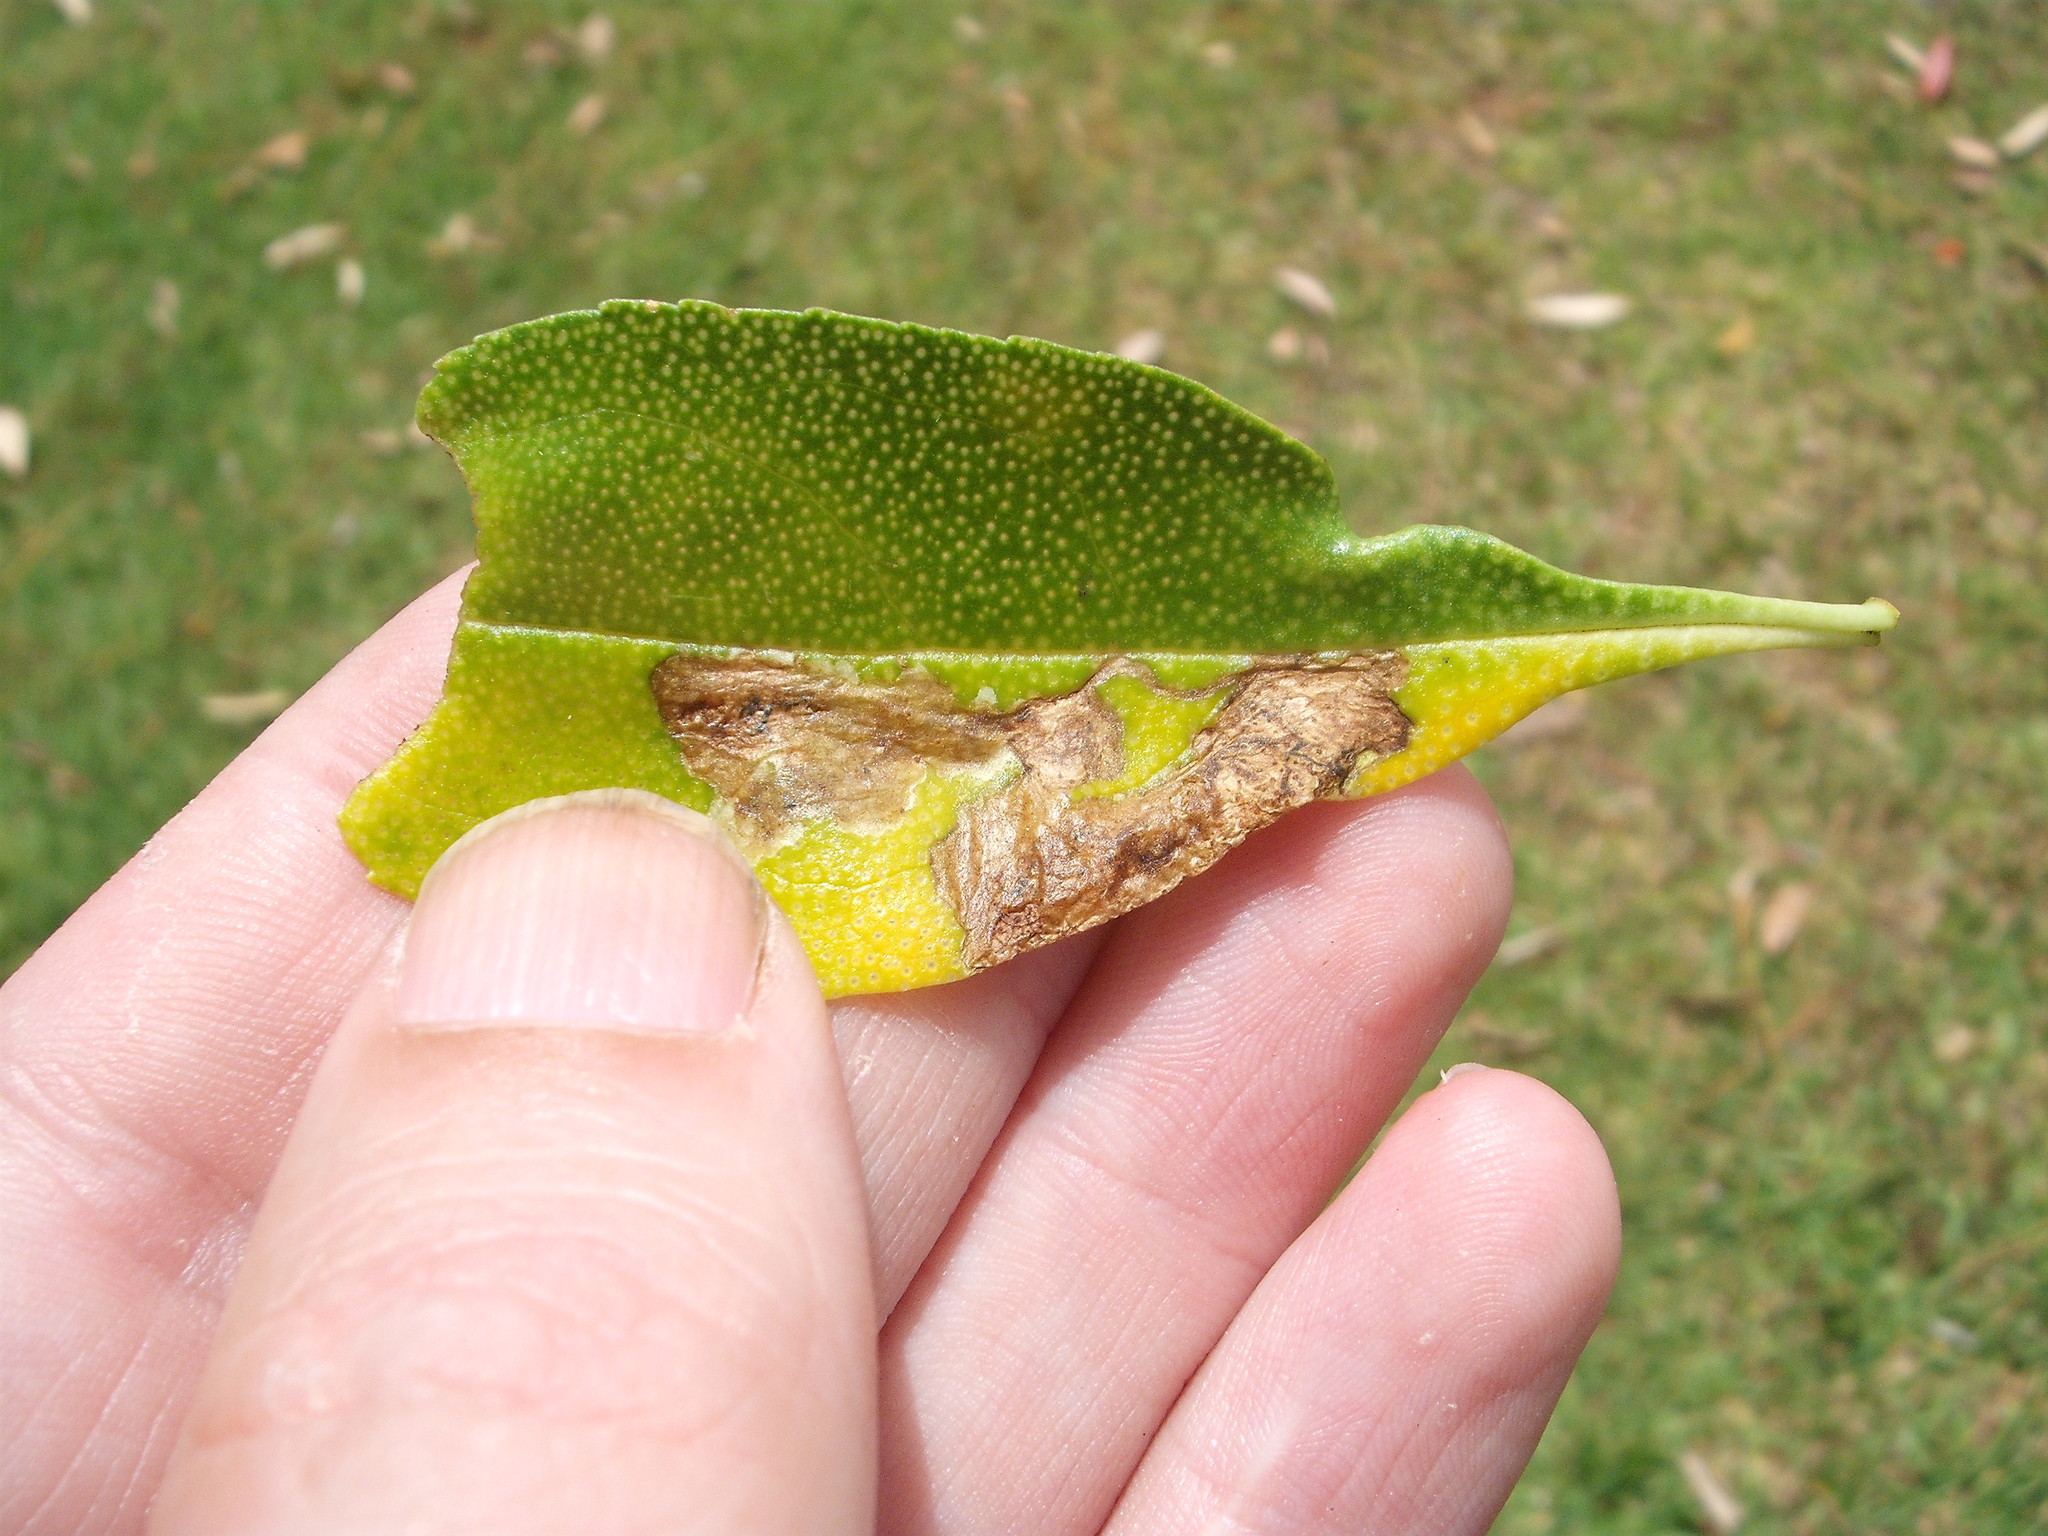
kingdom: Animalia
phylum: Arthropoda
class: Insecta
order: Diptera
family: Agromyzidae
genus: Liriomyza
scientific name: Liriomyza citreifemorata
